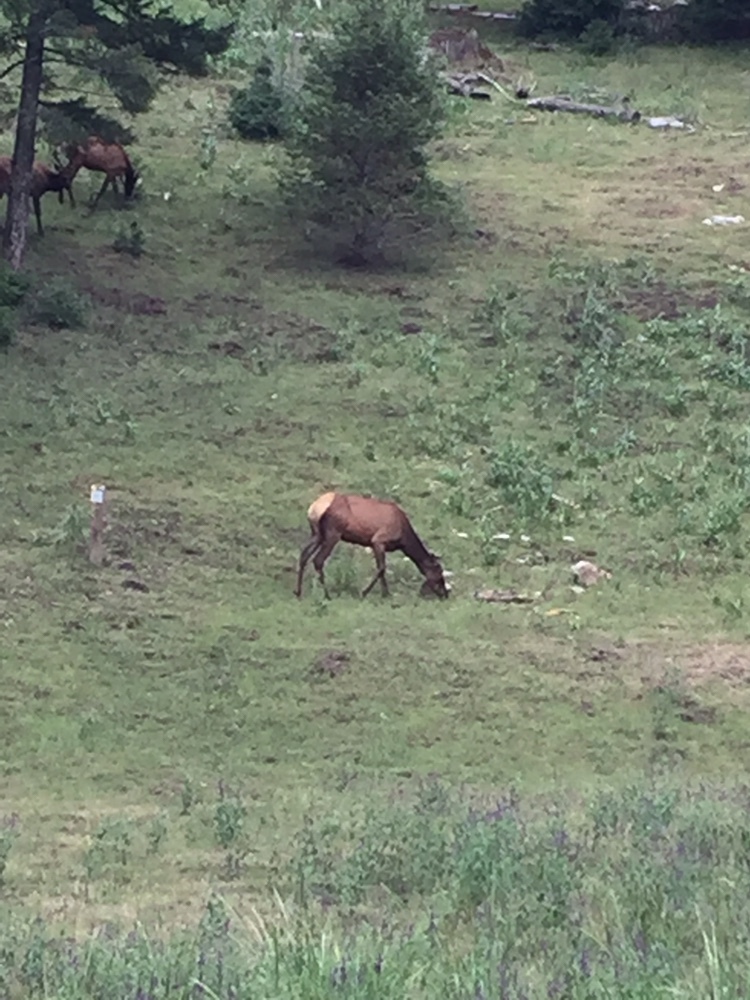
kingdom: Animalia
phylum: Chordata
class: Mammalia
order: Artiodactyla
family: Cervidae
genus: Cervus
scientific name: Cervus elaphus
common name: Red deer
